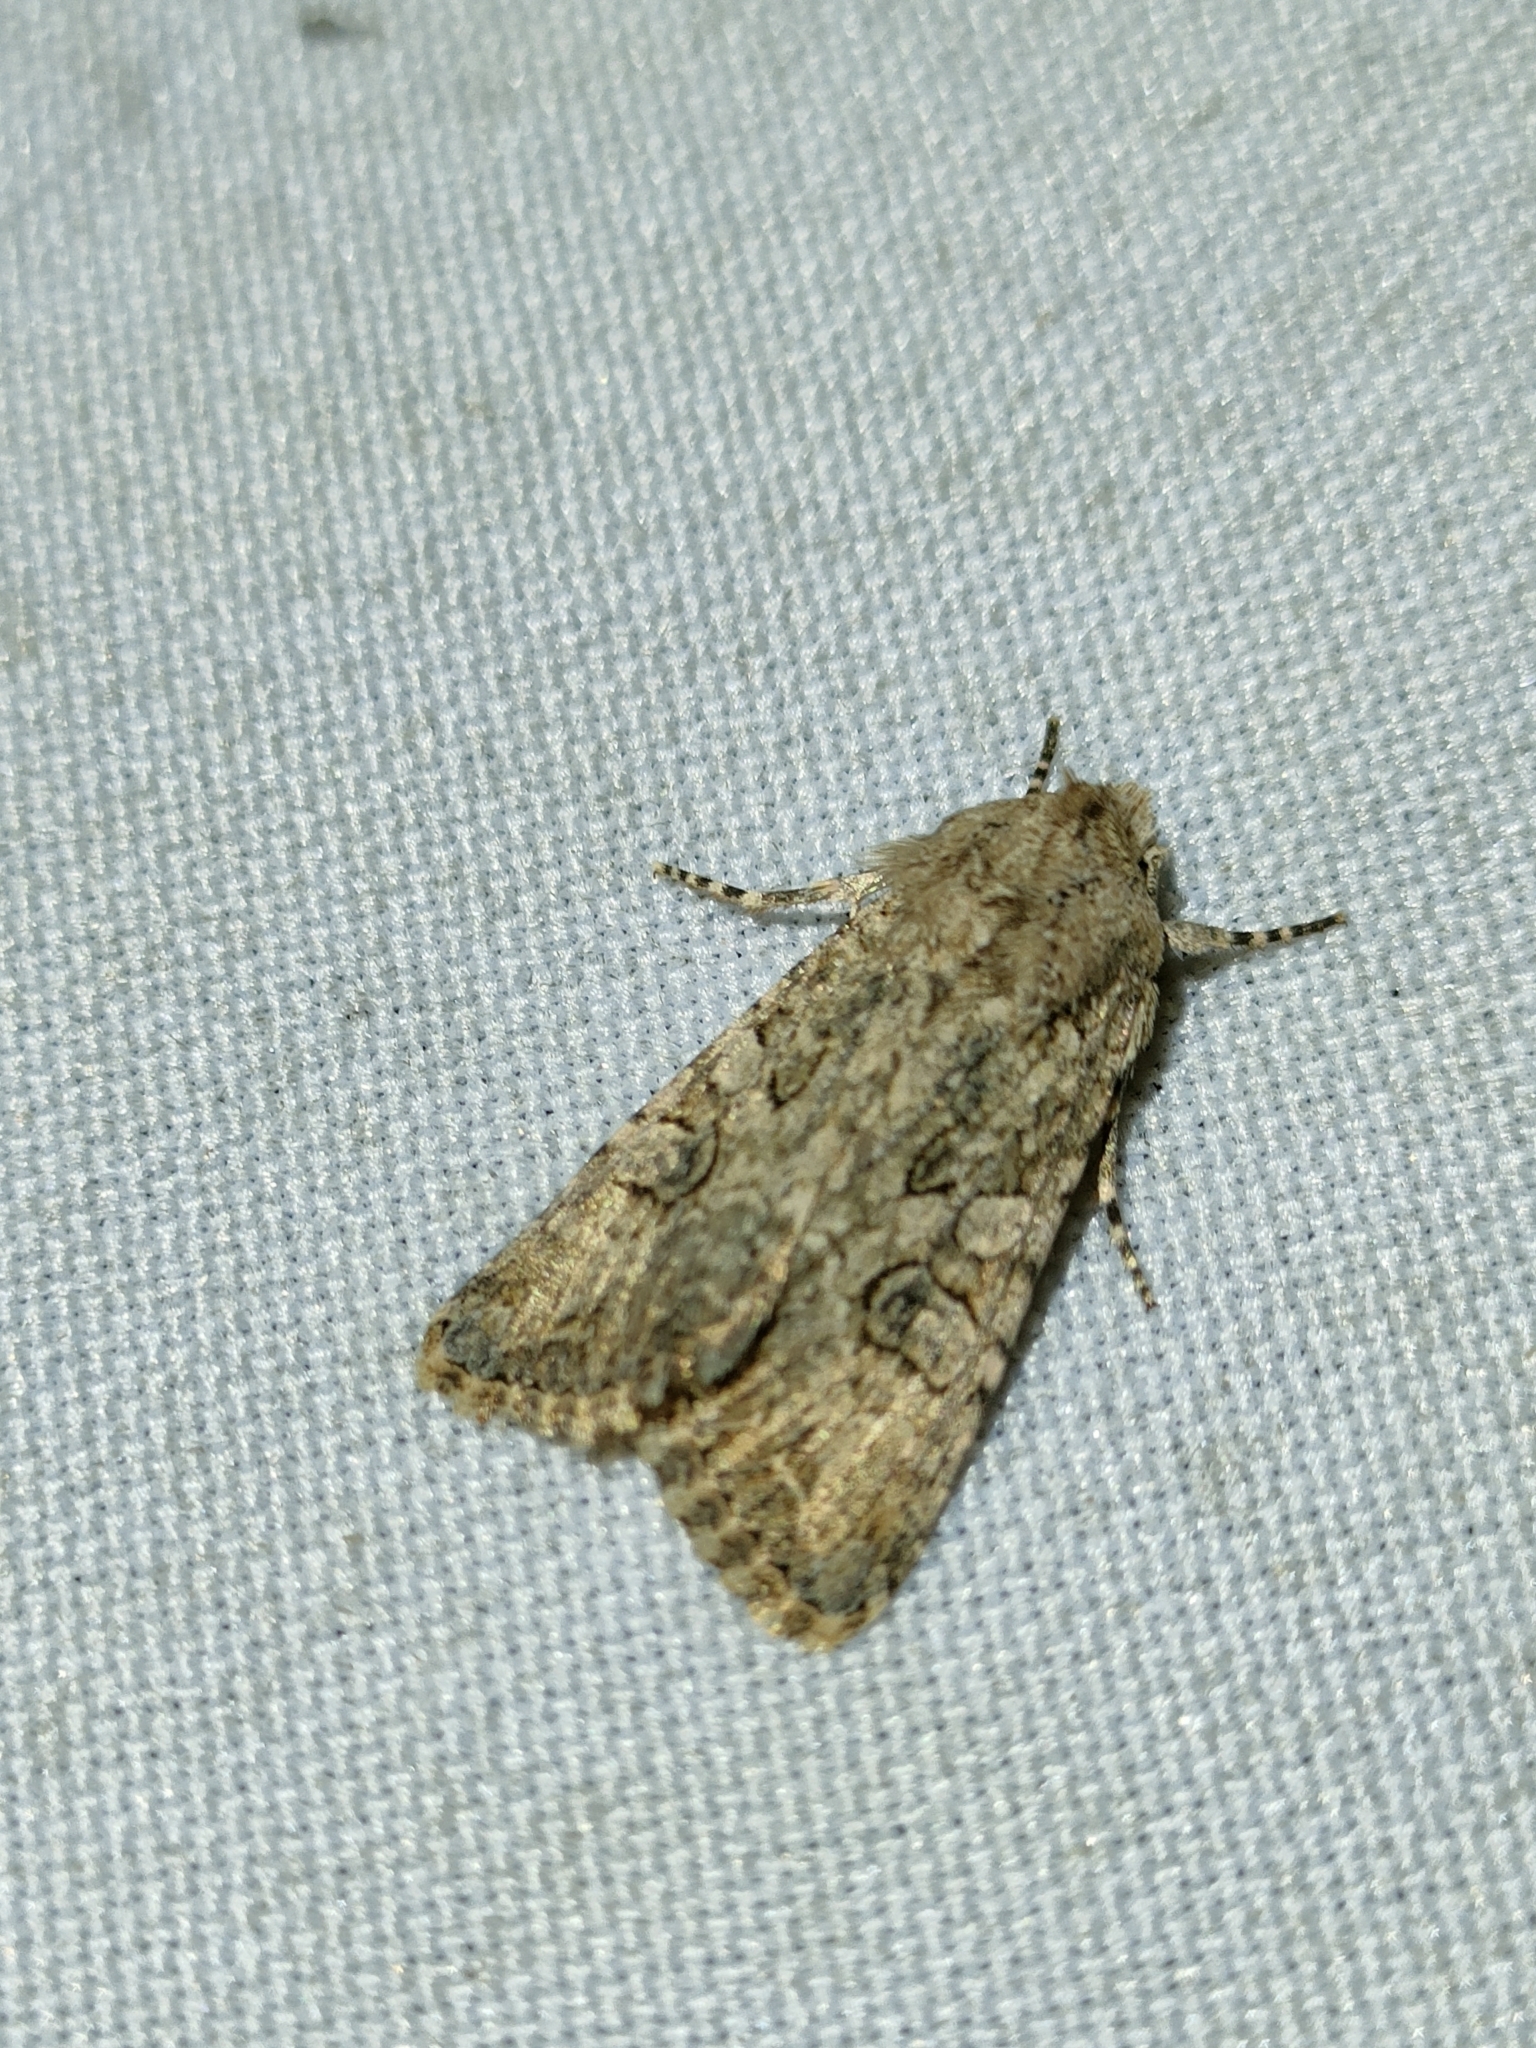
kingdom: Animalia
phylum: Arthropoda
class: Insecta
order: Lepidoptera
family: Noctuidae
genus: Anarta
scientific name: Anarta trifolii
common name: Clover cutworm moth
